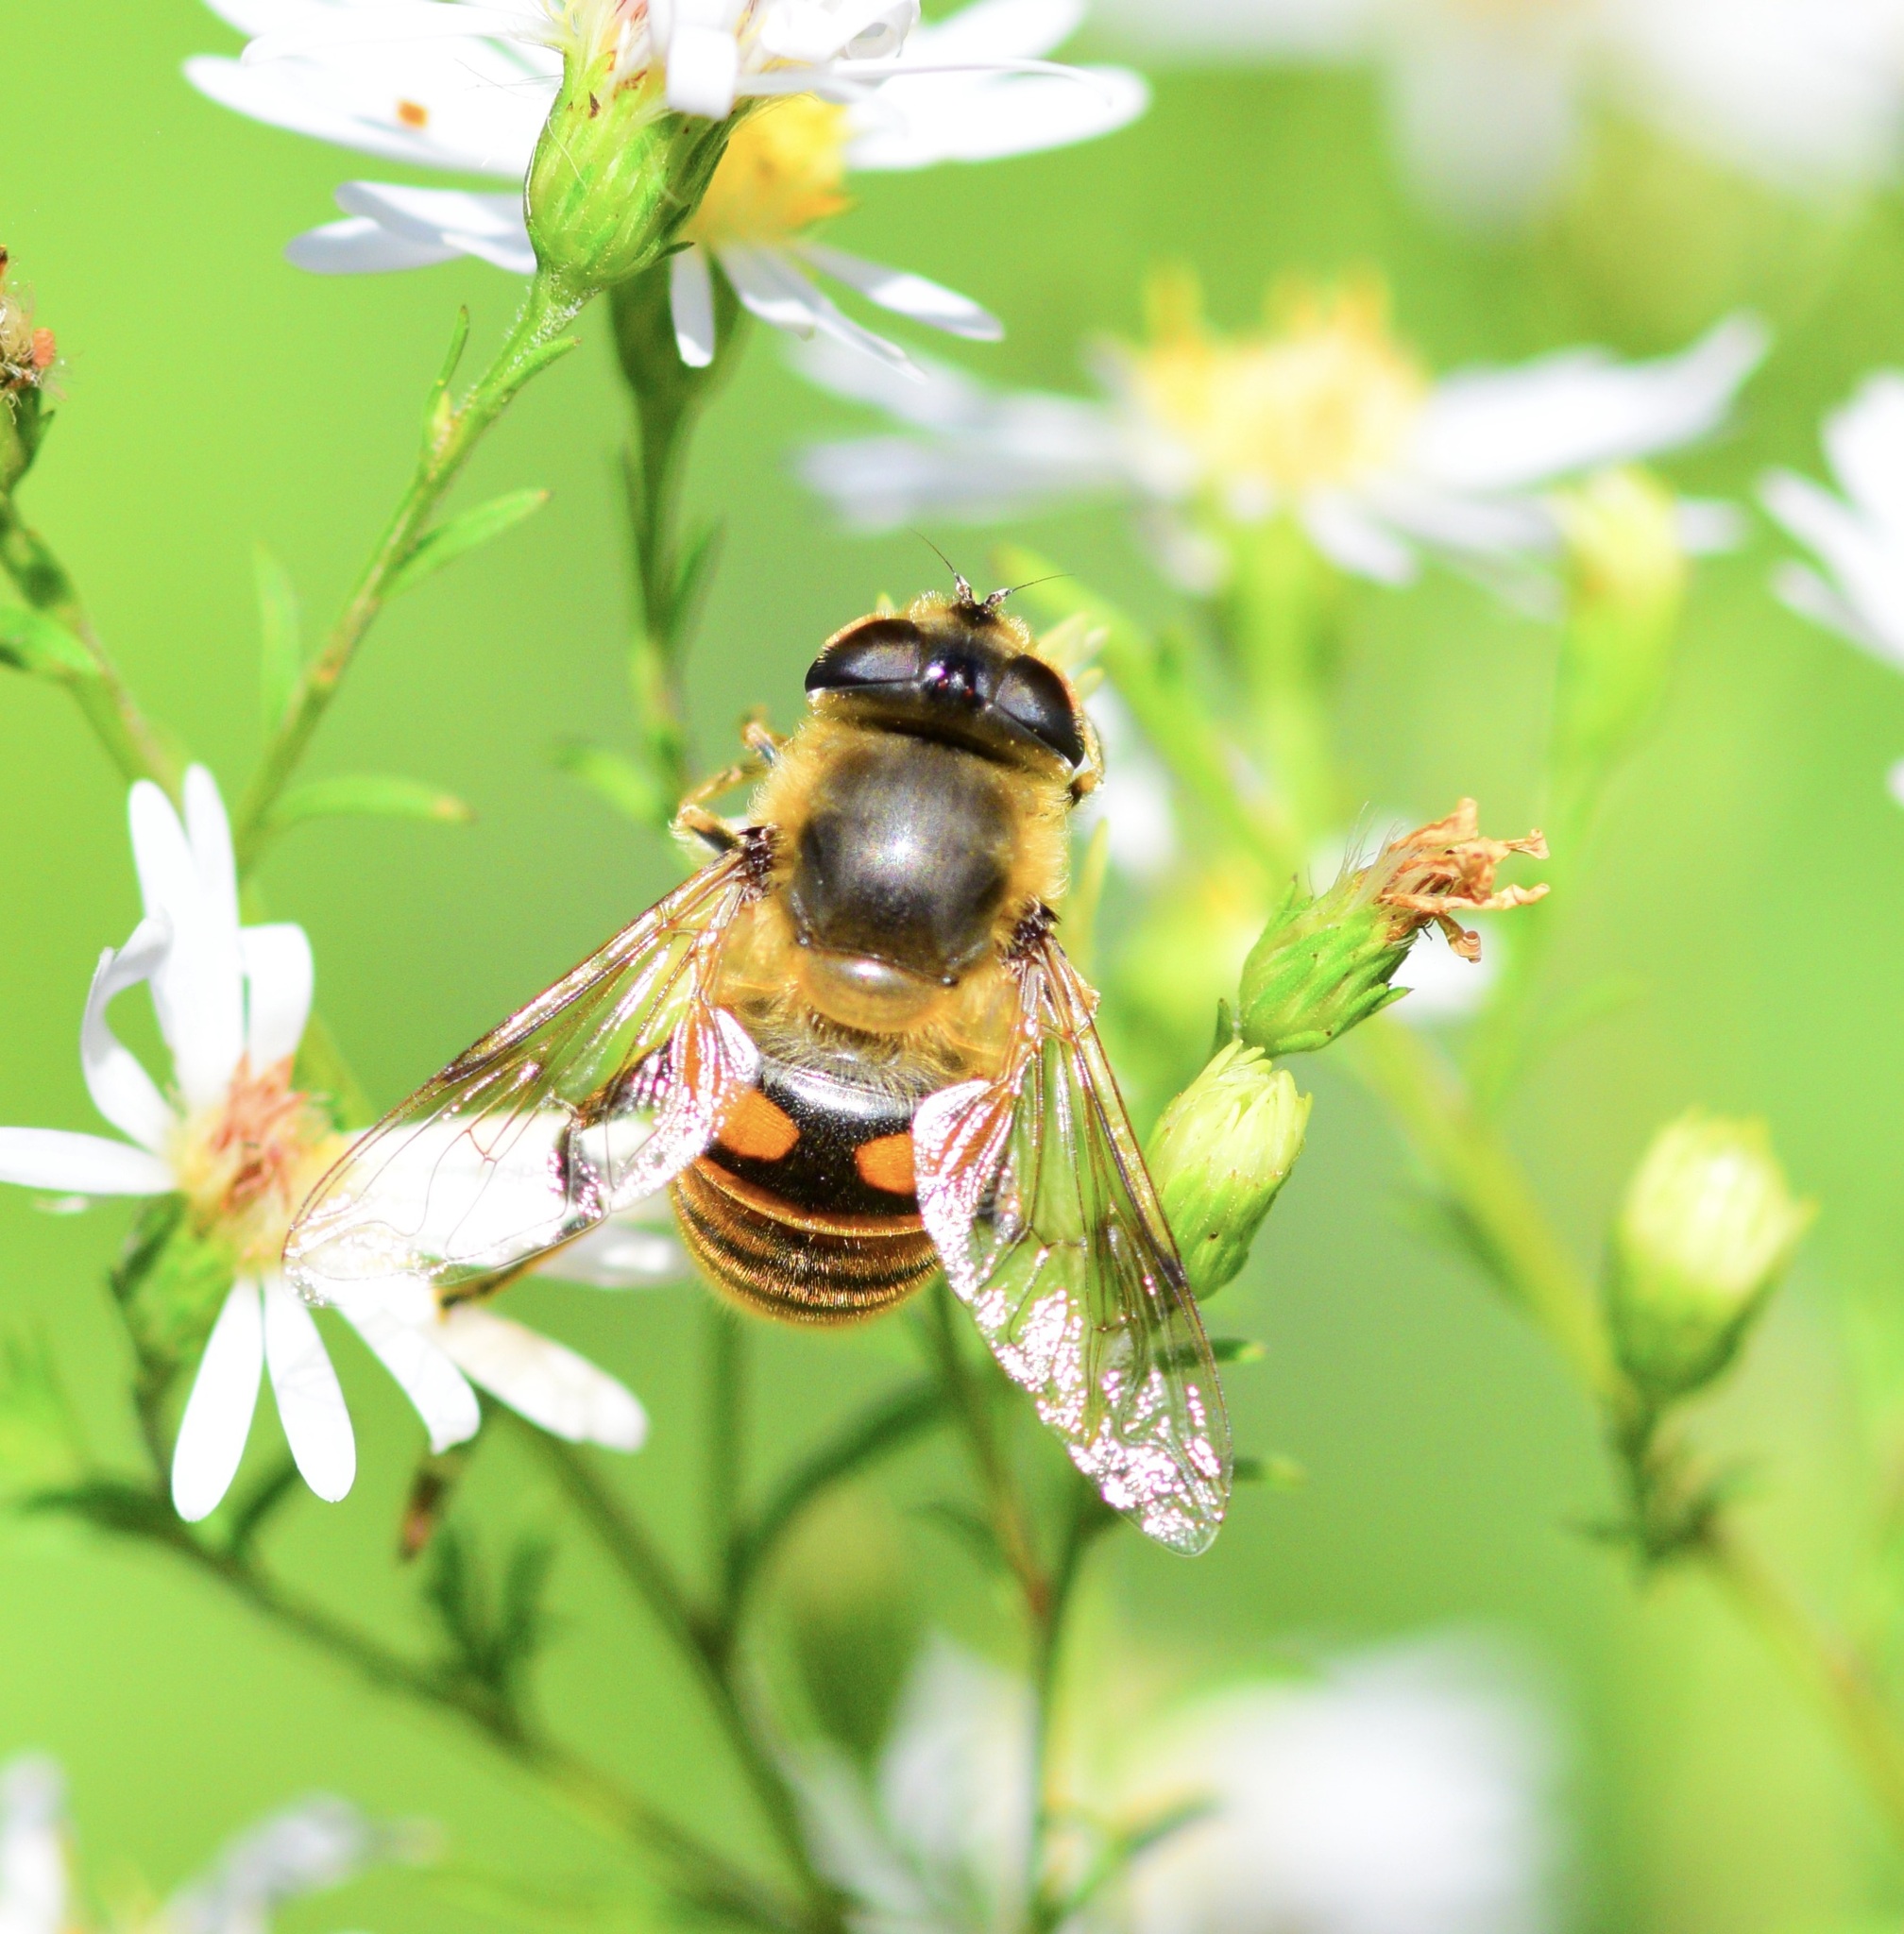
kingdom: Animalia
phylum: Arthropoda
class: Insecta
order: Diptera
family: Syrphidae
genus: Eristalis
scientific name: Eristalis tenax
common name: Drone fly
